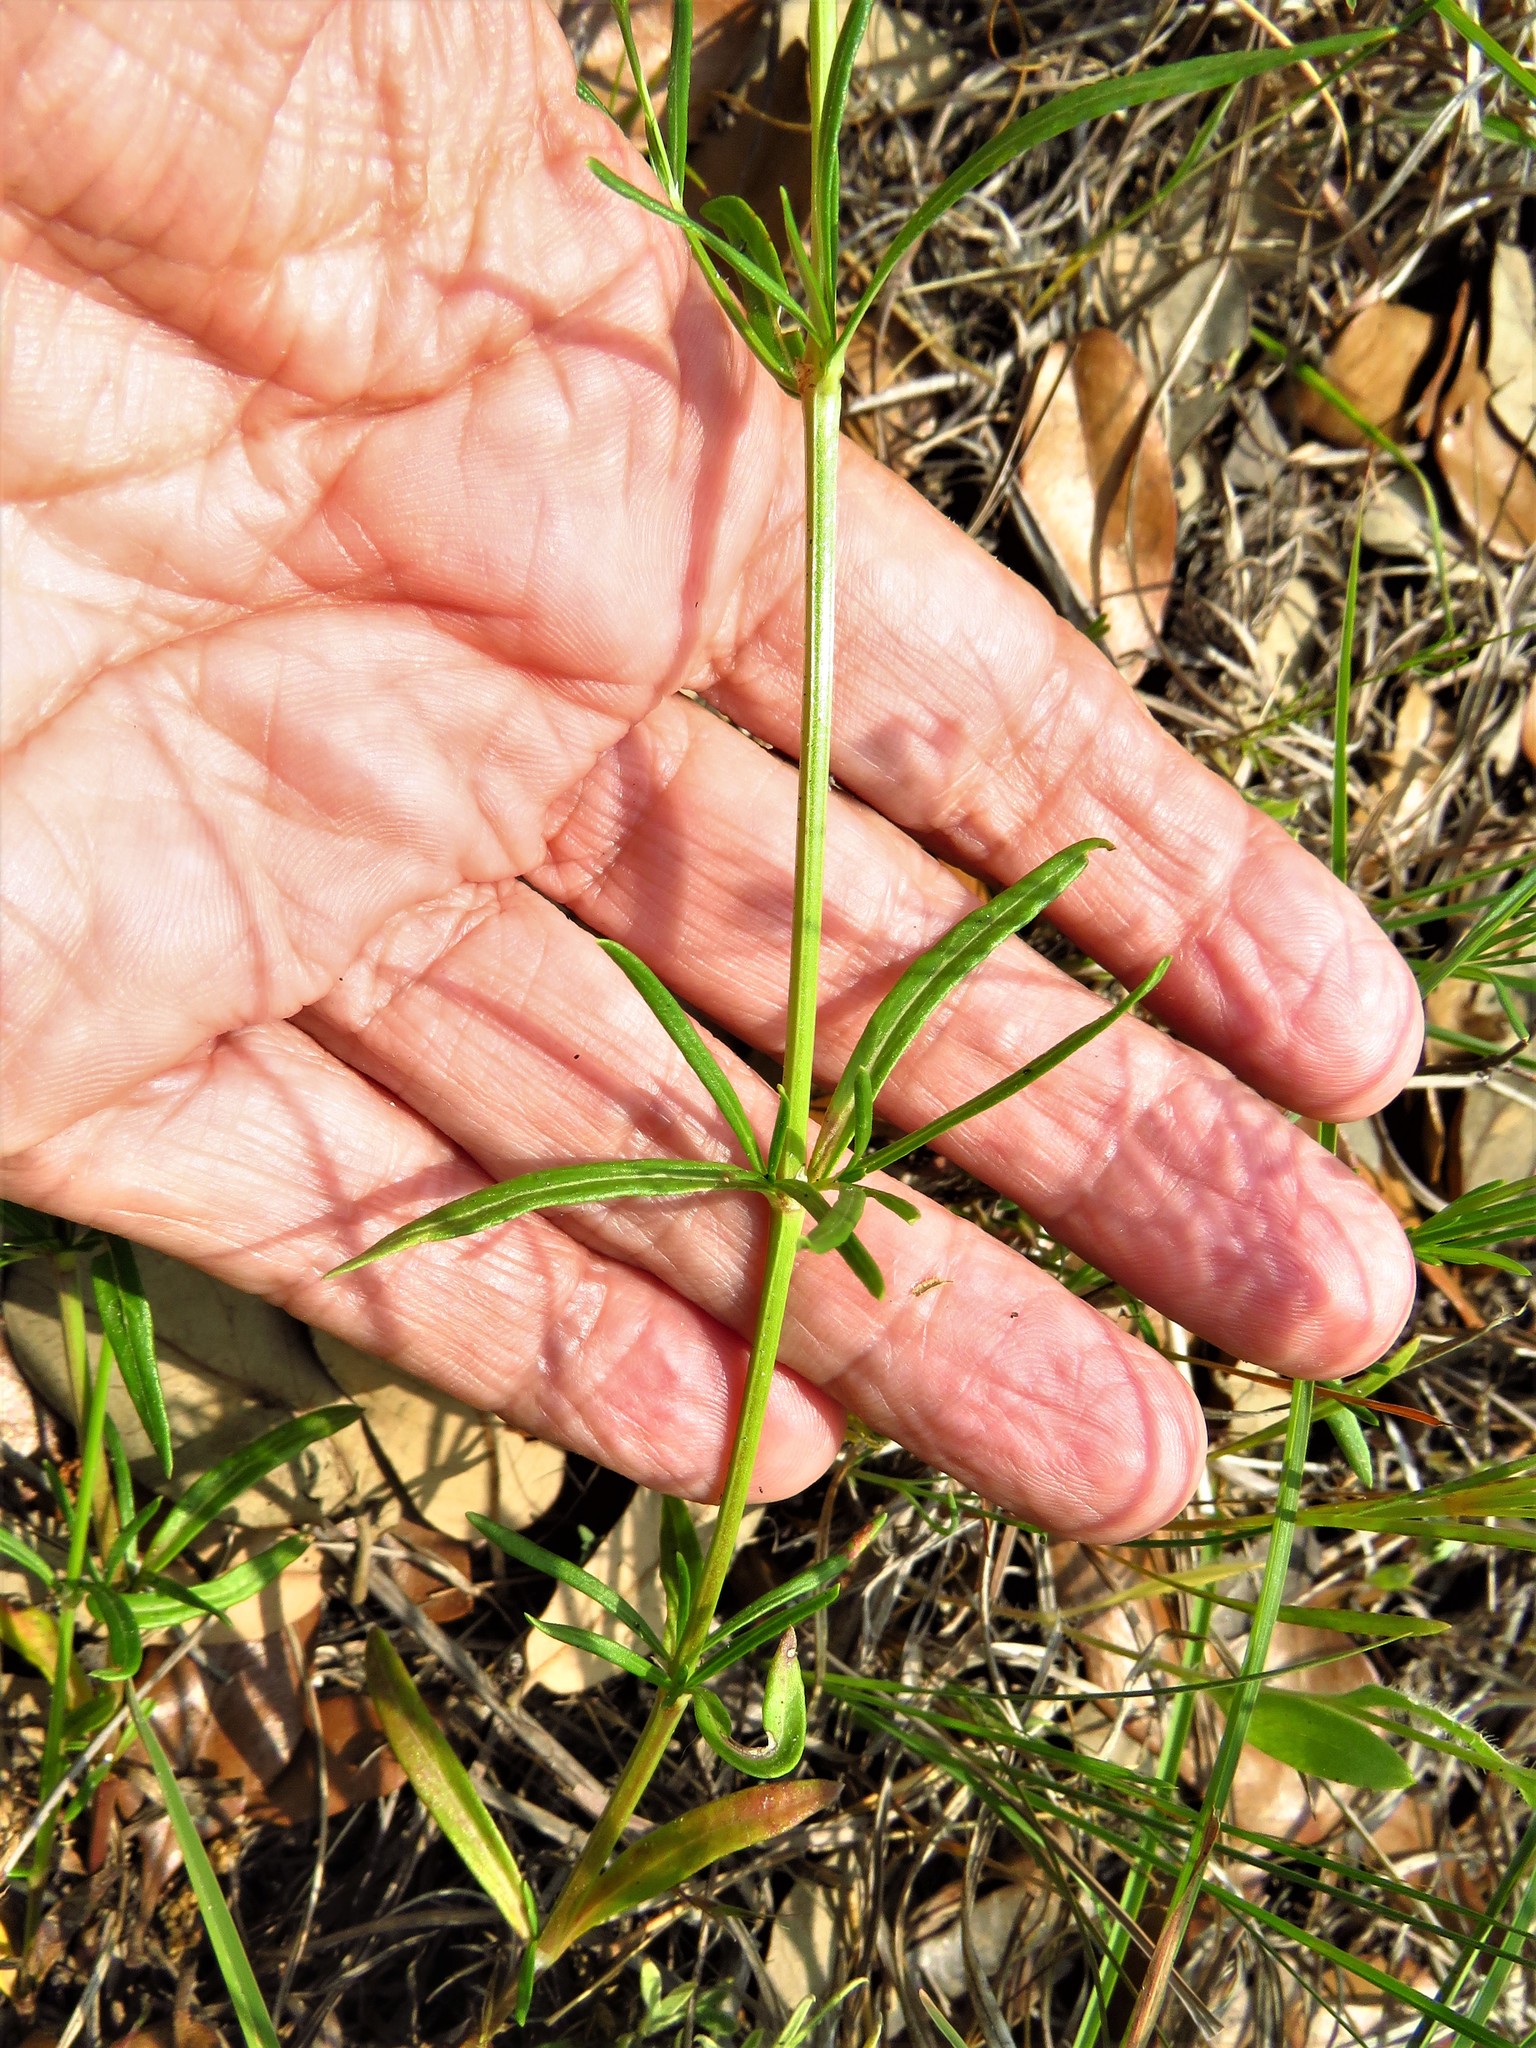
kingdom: Plantae
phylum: Tracheophyta
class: Magnoliopsida
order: Gentianales
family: Rubiaceae
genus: Stenaria
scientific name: Stenaria nigricans
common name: Diamondflowers
